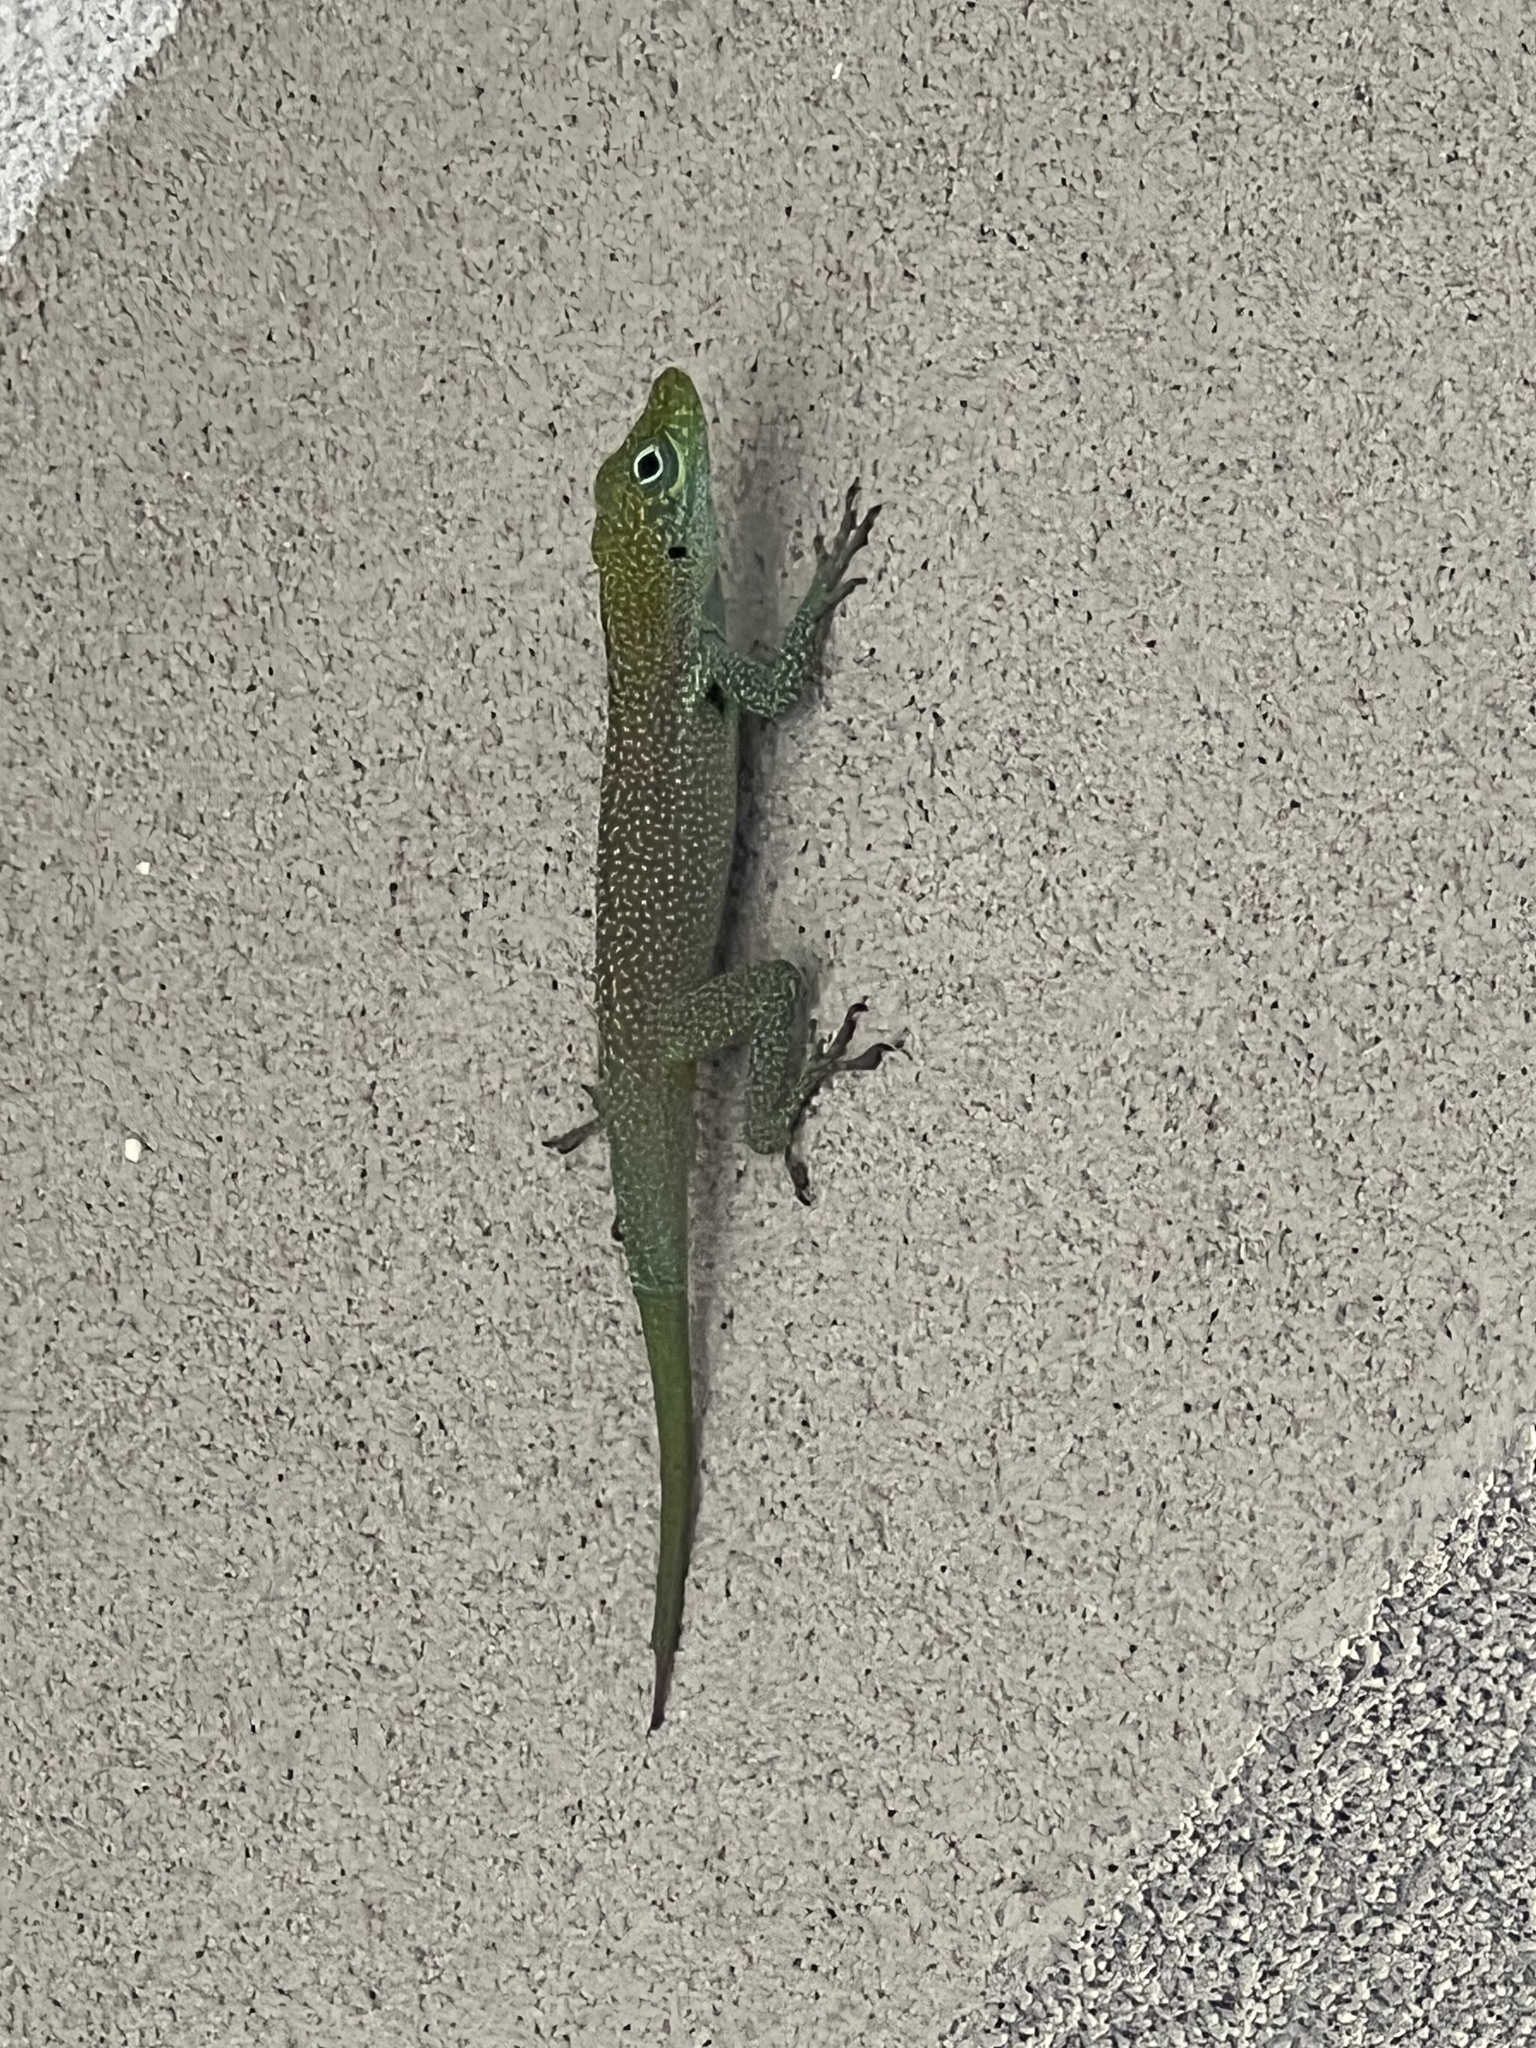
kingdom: Animalia
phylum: Chordata
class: Squamata
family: Dactyloidae
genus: Anolis
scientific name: Anolis conspersus
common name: Grand cayman anole
